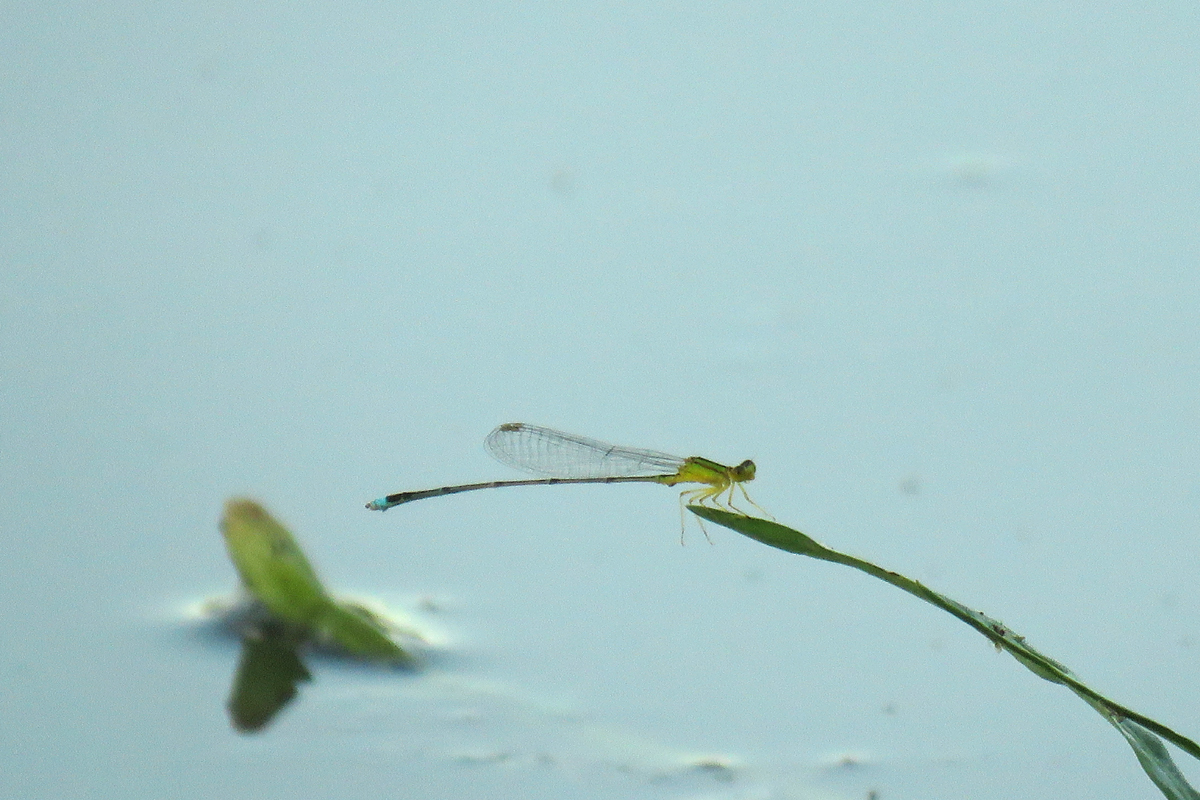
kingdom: Animalia
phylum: Arthropoda
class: Insecta
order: Odonata
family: Coenagrionidae
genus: Enallagma
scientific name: Enallagma vesperum
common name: Vesper bluet
